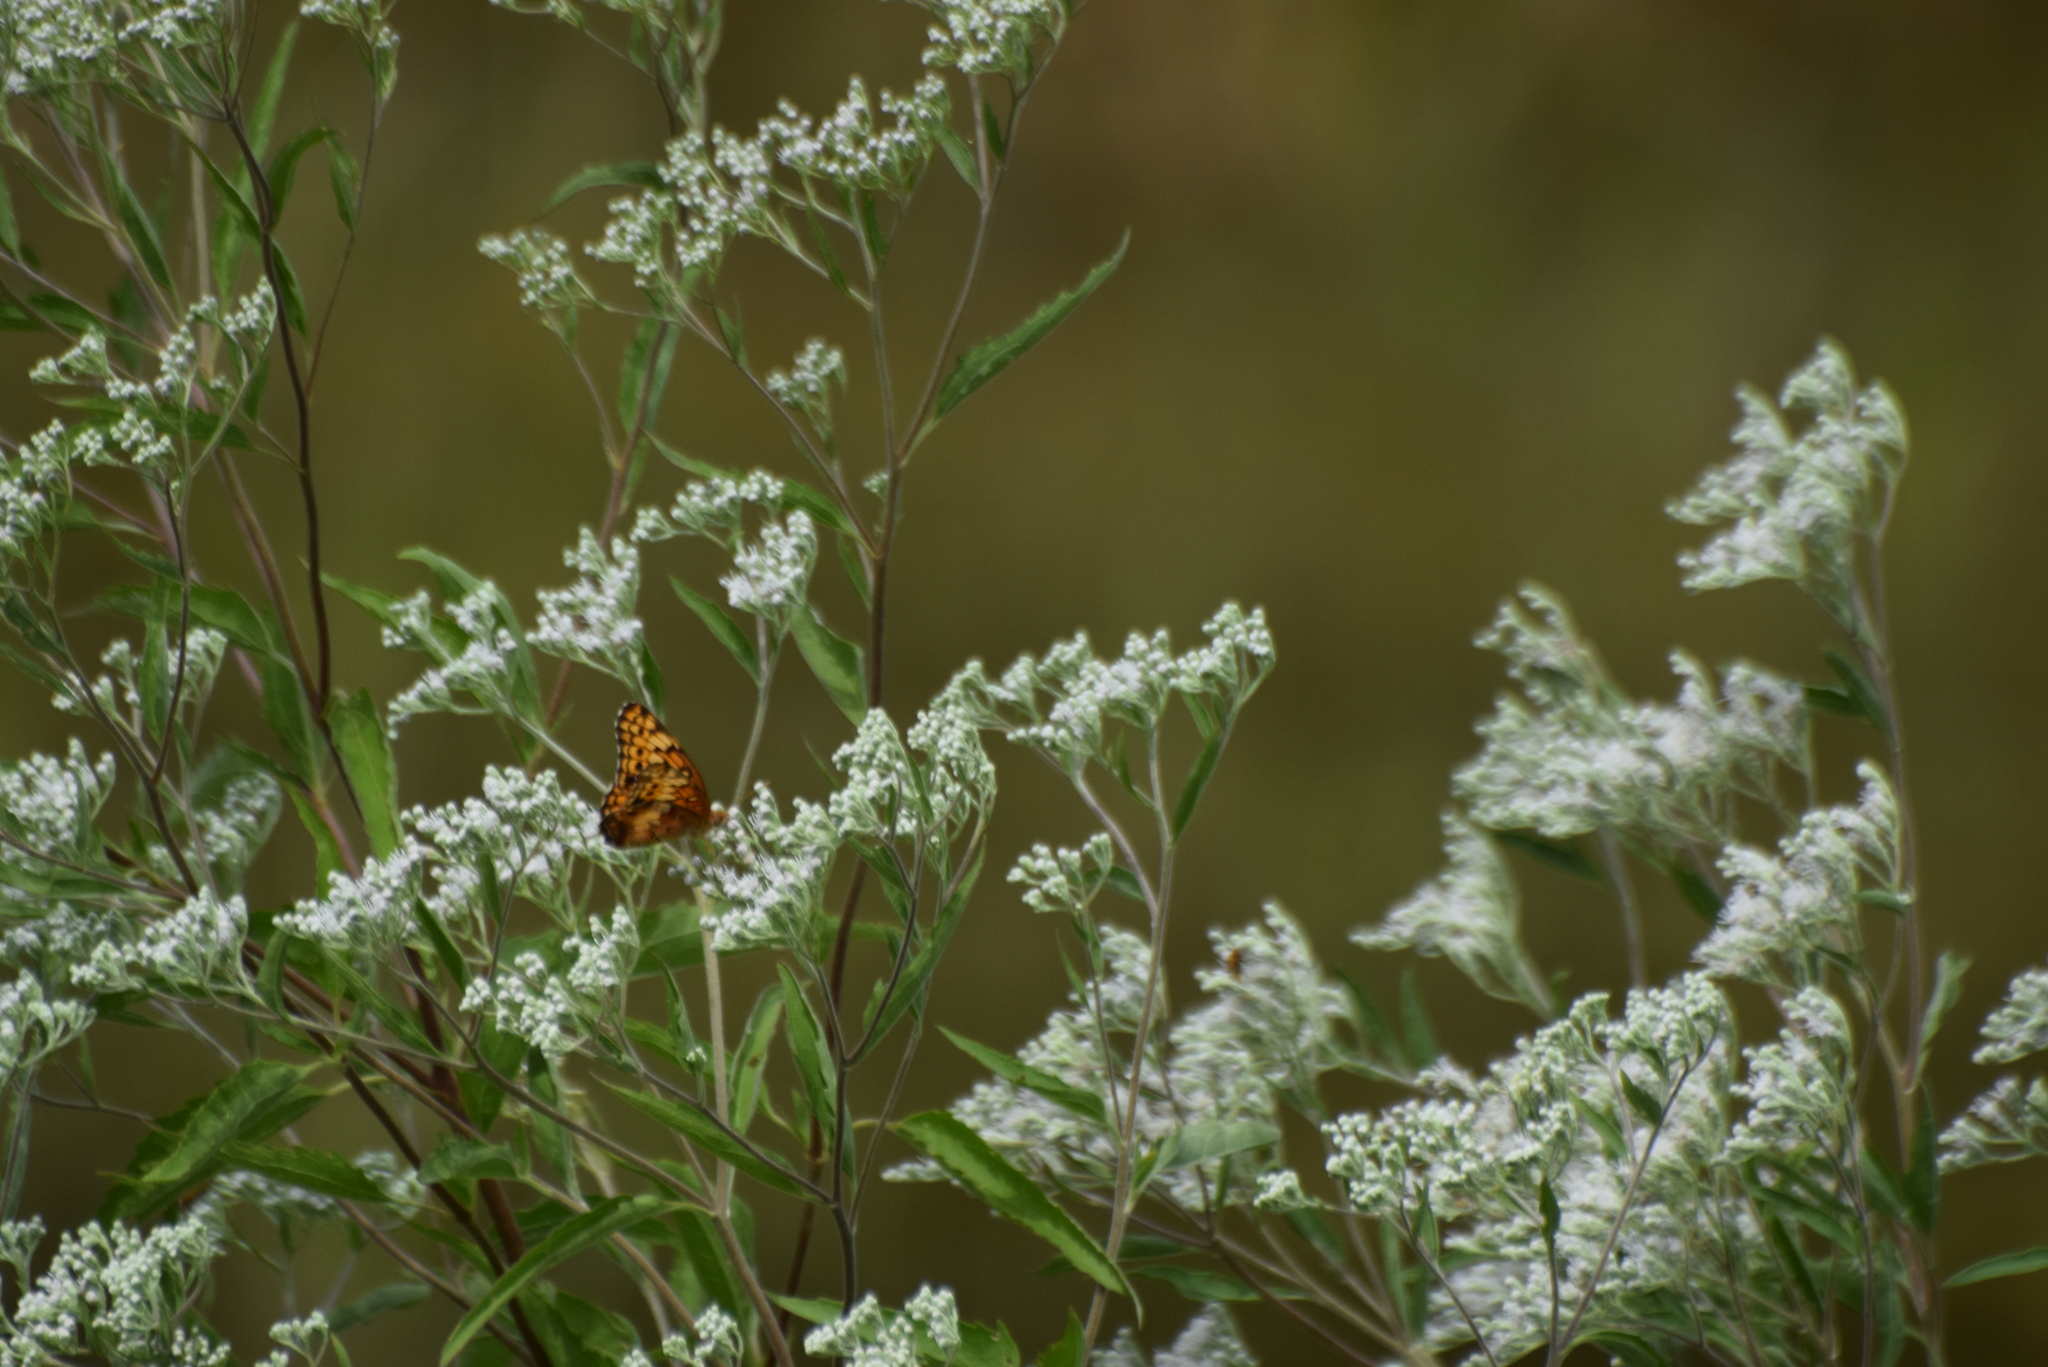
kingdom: Animalia
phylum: Arthropoda
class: Insecta
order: Lepidoptera
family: Nymphalidae
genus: Euptoieta
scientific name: Euptoieta claudia
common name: Variegated fritillary
